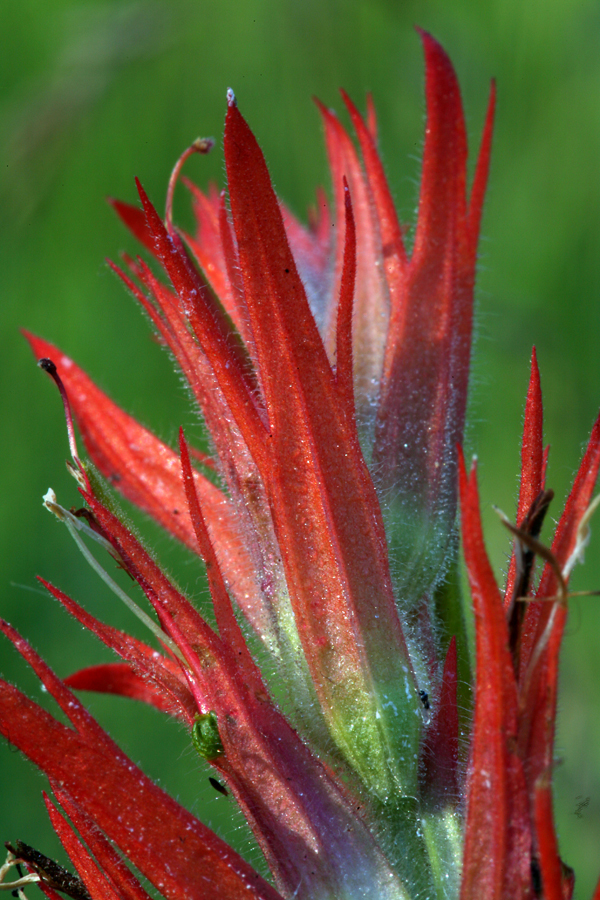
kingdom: Plantae
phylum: Tracheophyta
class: Magnoliopsida
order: Lamiales
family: Orobanchaceae
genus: Castilleja
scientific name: Castilleja miniata
